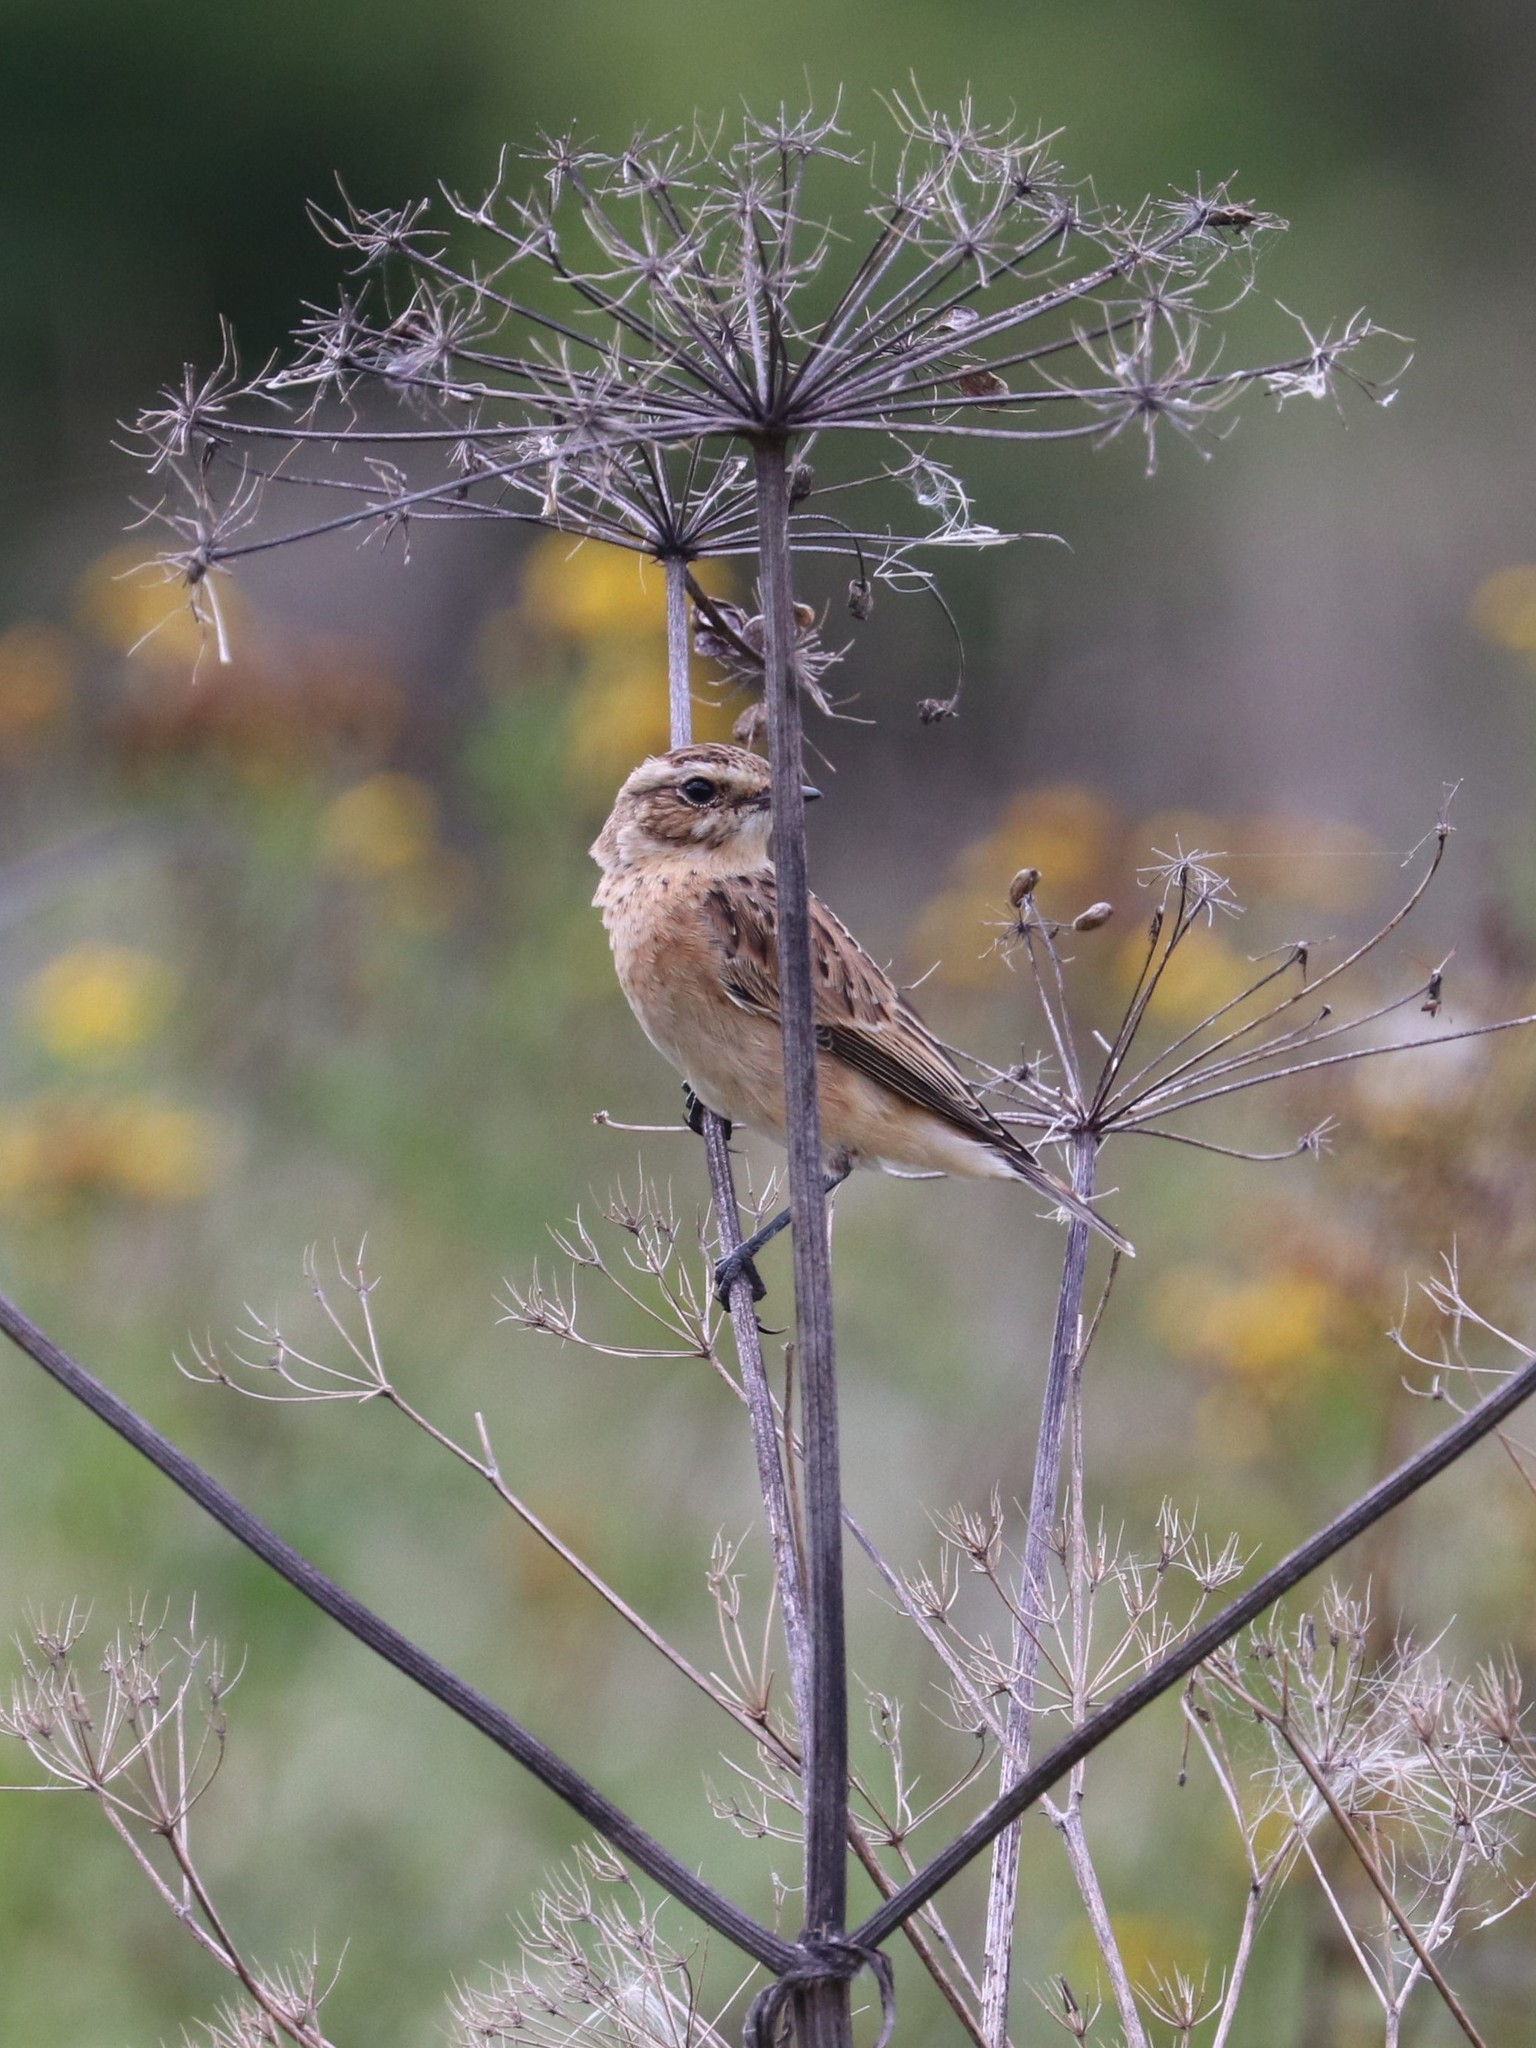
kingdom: Animalia
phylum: Chordata
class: Aves
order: Passeriformes
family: Muscicapidae
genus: Saxicola
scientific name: Saxicola rubetra
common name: Whinchat
